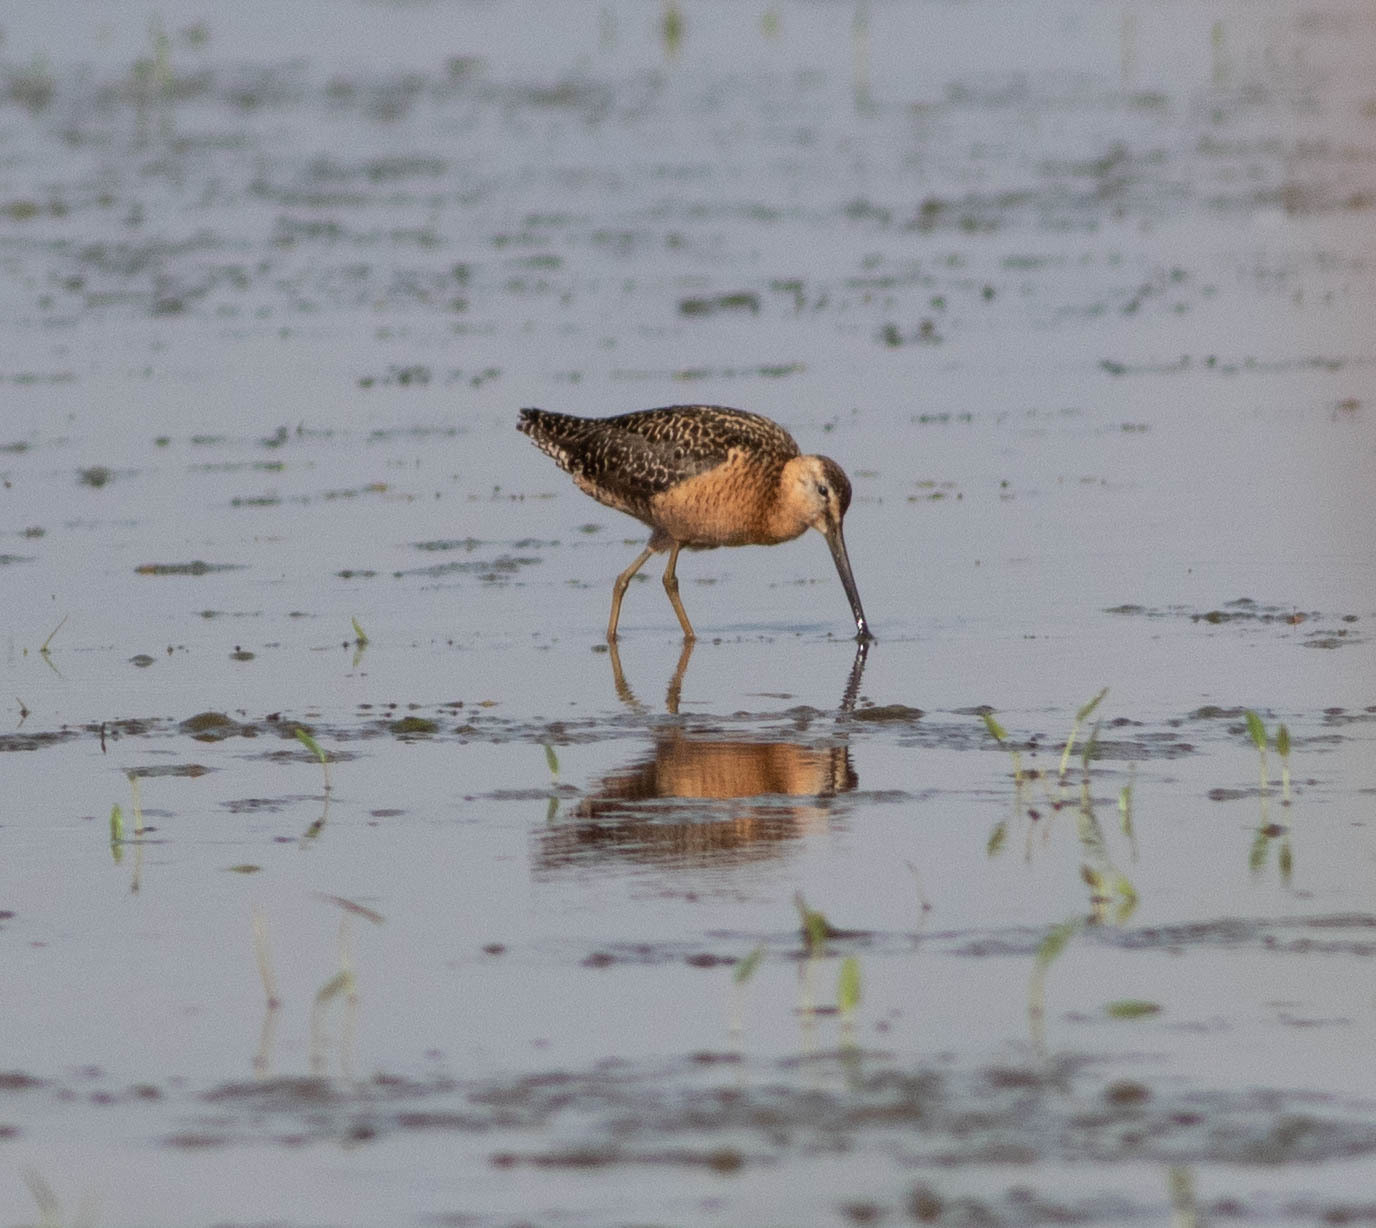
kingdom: Animalia
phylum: Chordata
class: Aves
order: Charadriiformes
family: Scolopacidae
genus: Limnodromus
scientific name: Limnodromus scolopaceus
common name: Long-billed dowitcher
